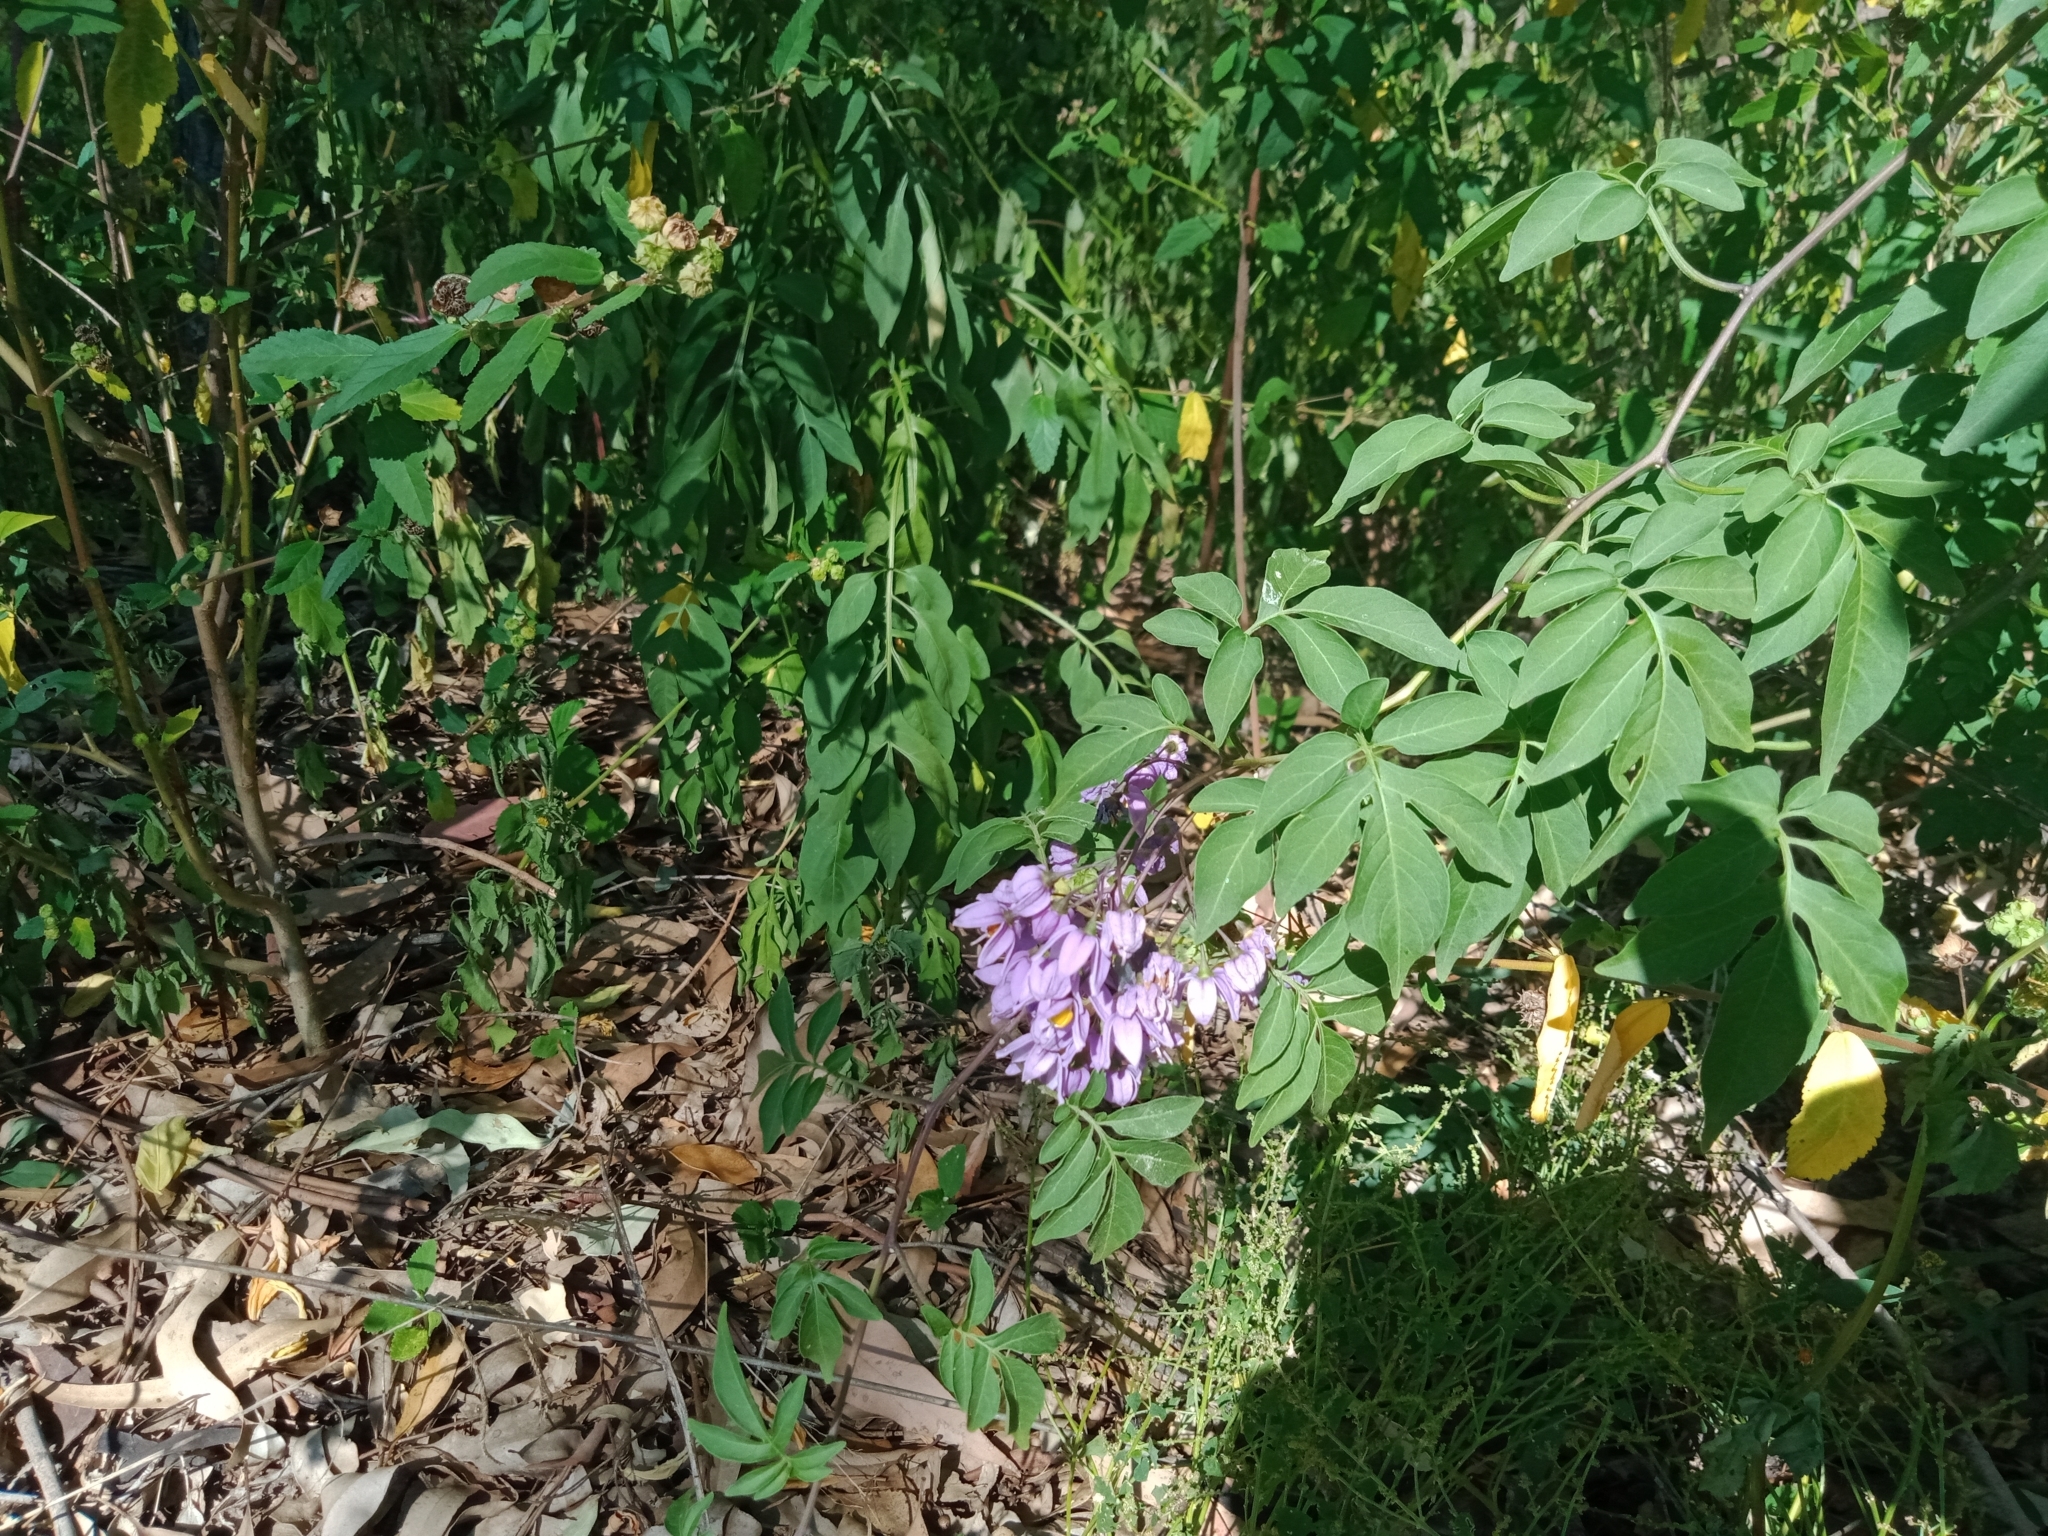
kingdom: Plantae
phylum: Tracheophyta
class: Magnoliopsida
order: Solanales
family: Solanaceae
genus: Solanum
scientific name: Solanum seaforthianum
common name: Brazilian nightshade
